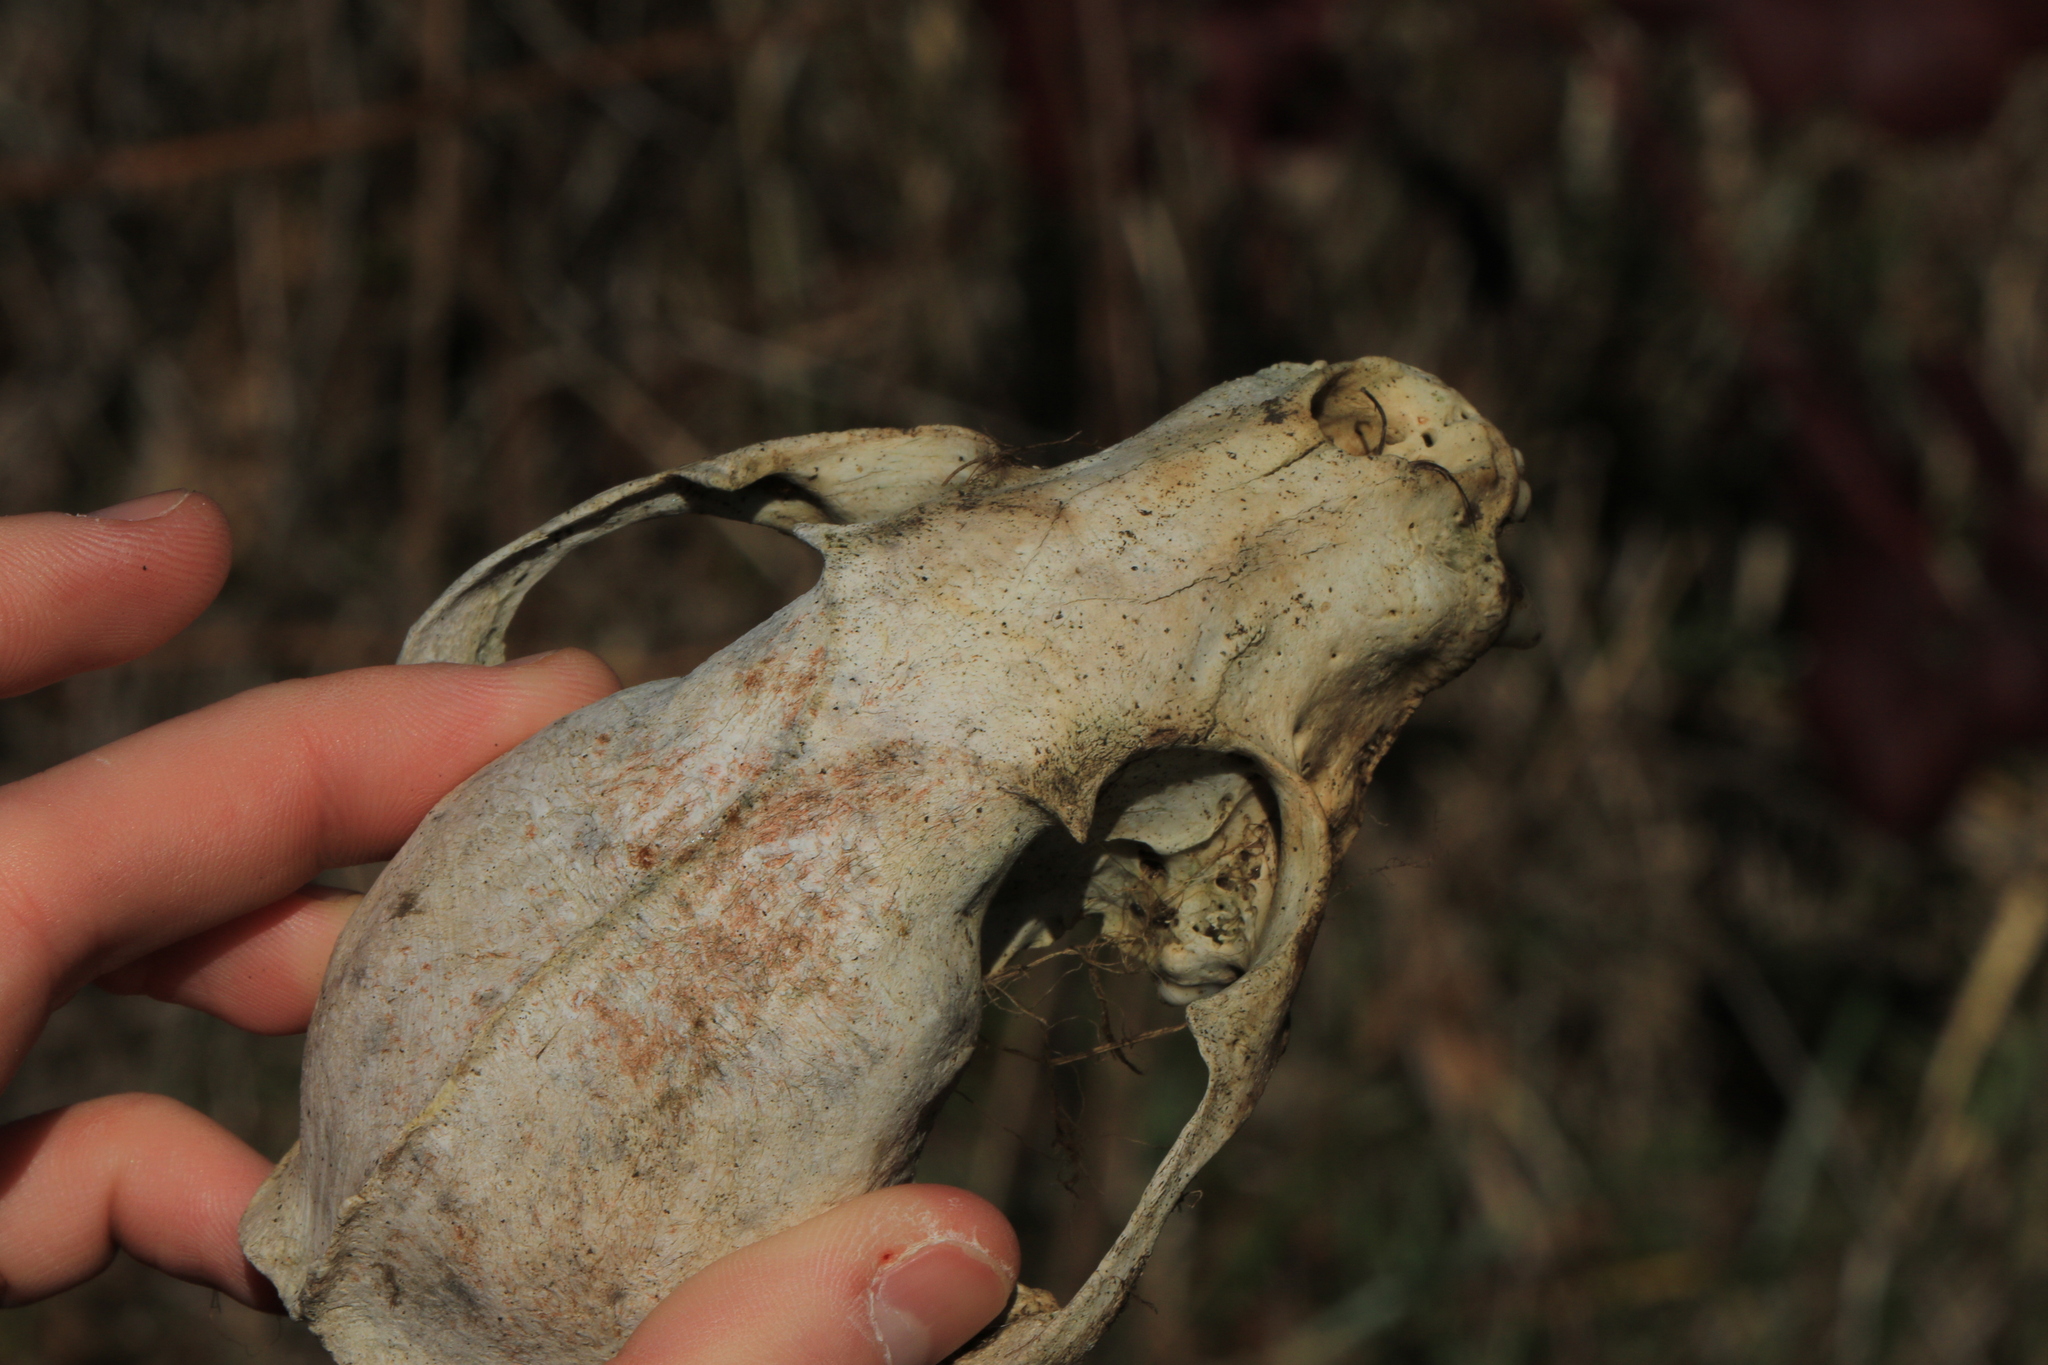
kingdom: Animalia
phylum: Chordata
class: Mammalia
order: Carnivora
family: Procyonidae
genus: Procyon
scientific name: Procyon lotor
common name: Raccoon
